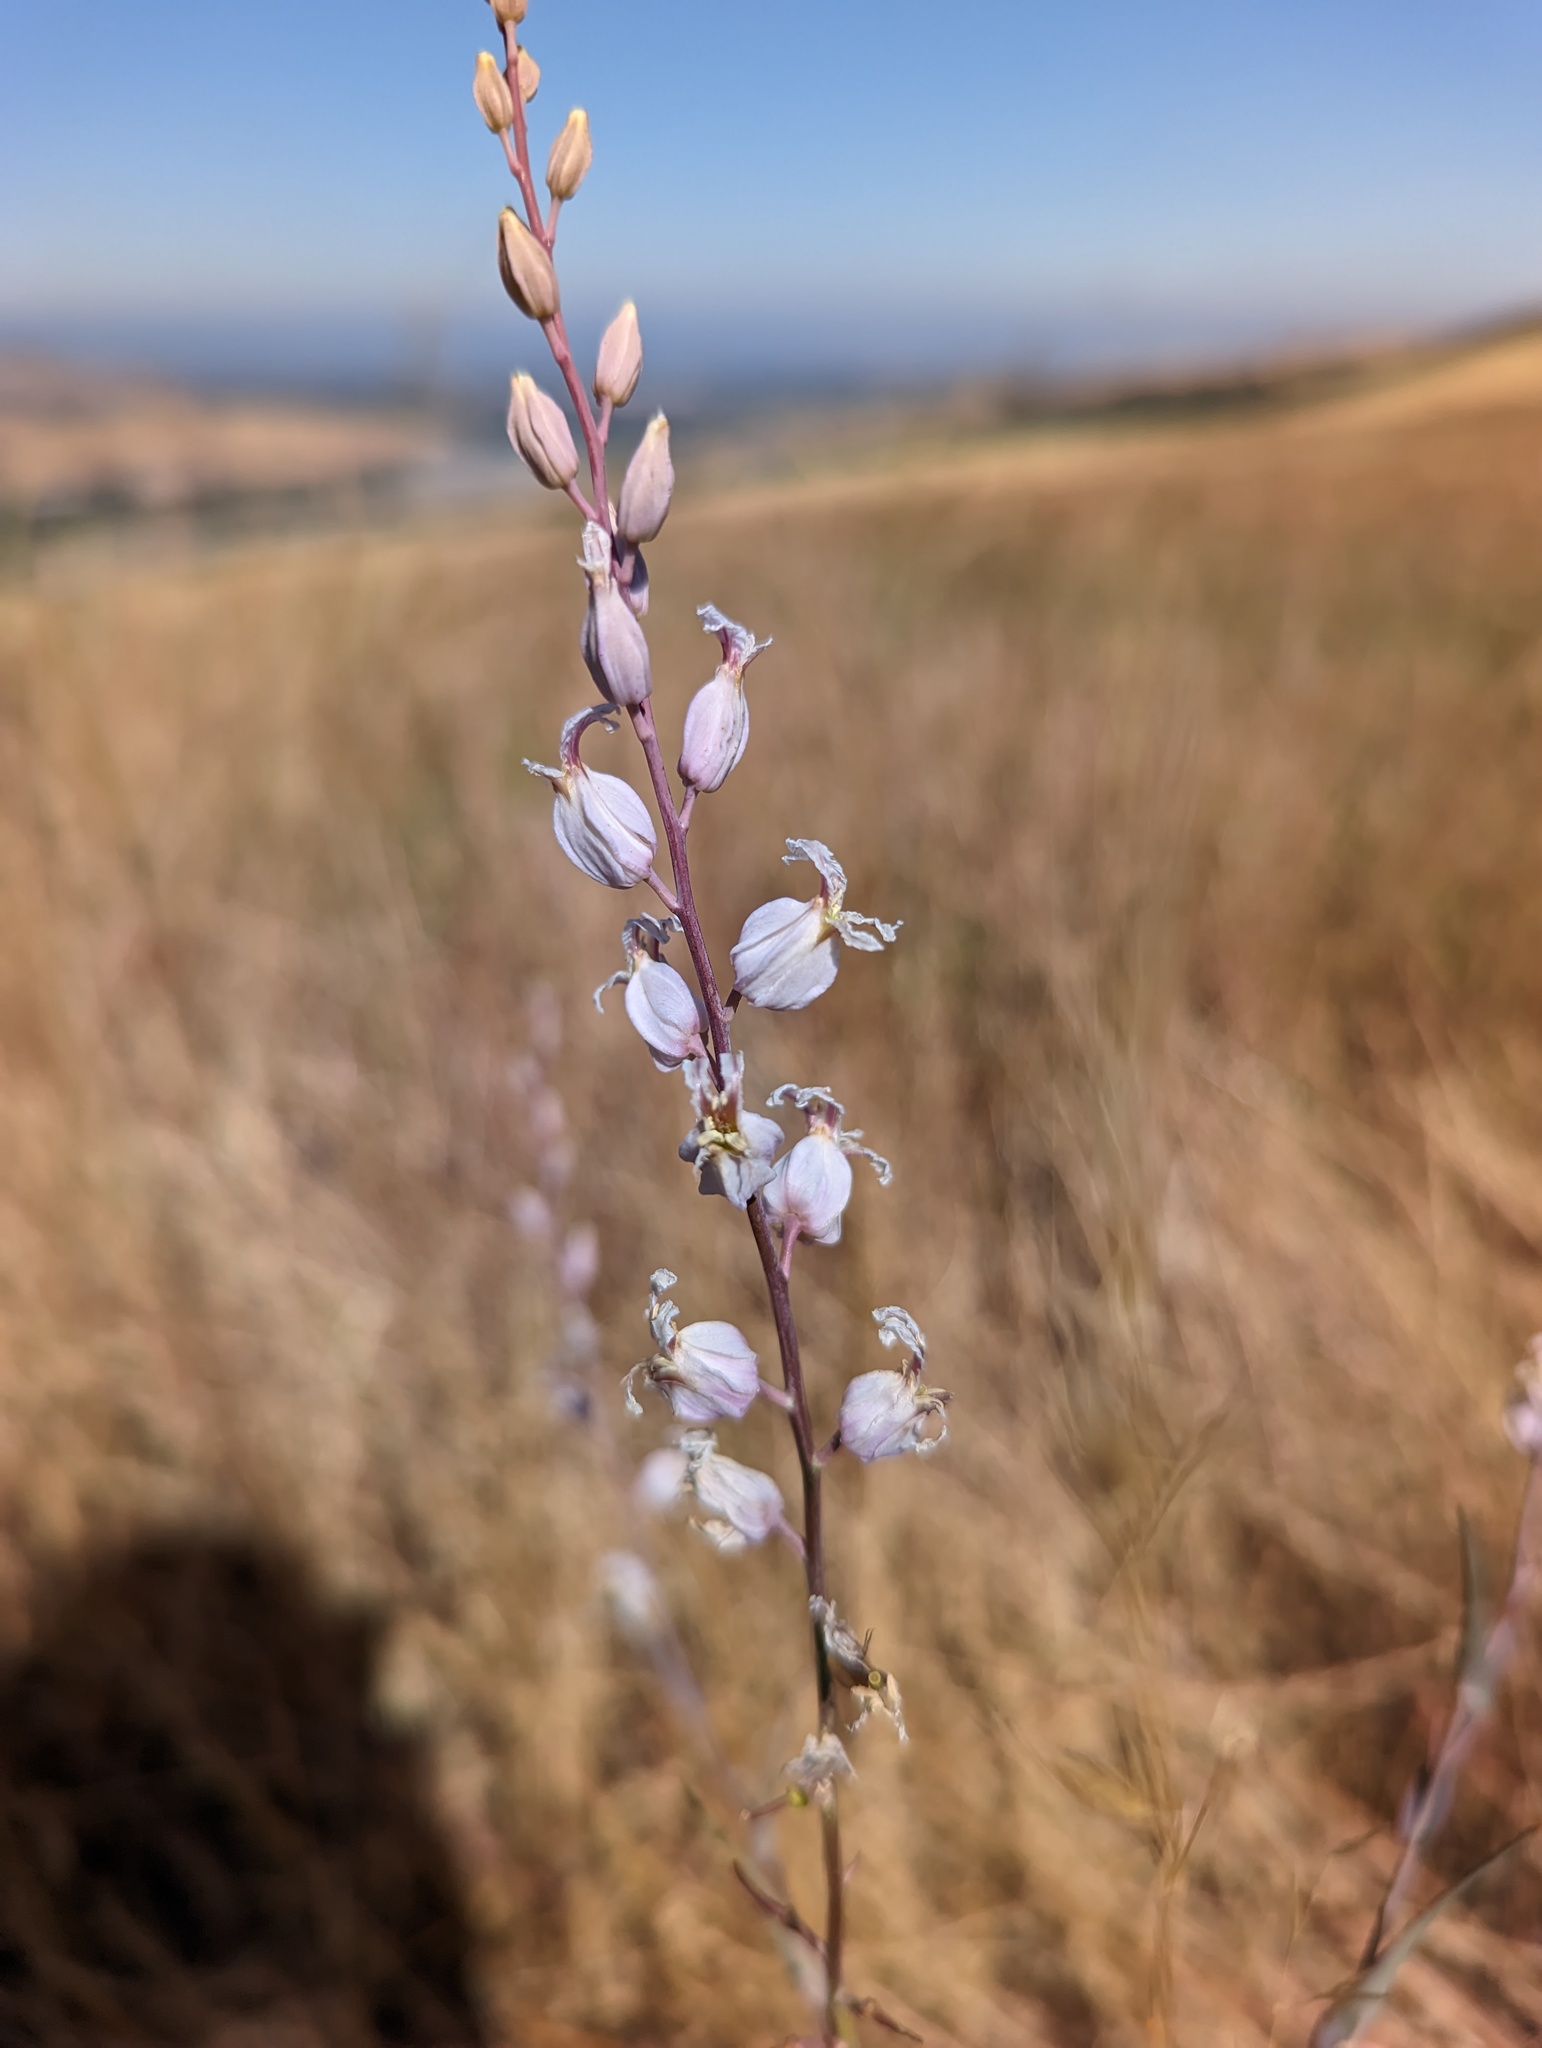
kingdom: Plantae
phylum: Tracheophyta
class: Magnoliopsida
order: Brassicales
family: Brassicaceae
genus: Streptanthus
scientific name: Streptanthus glandulosus
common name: Jewel-flower
